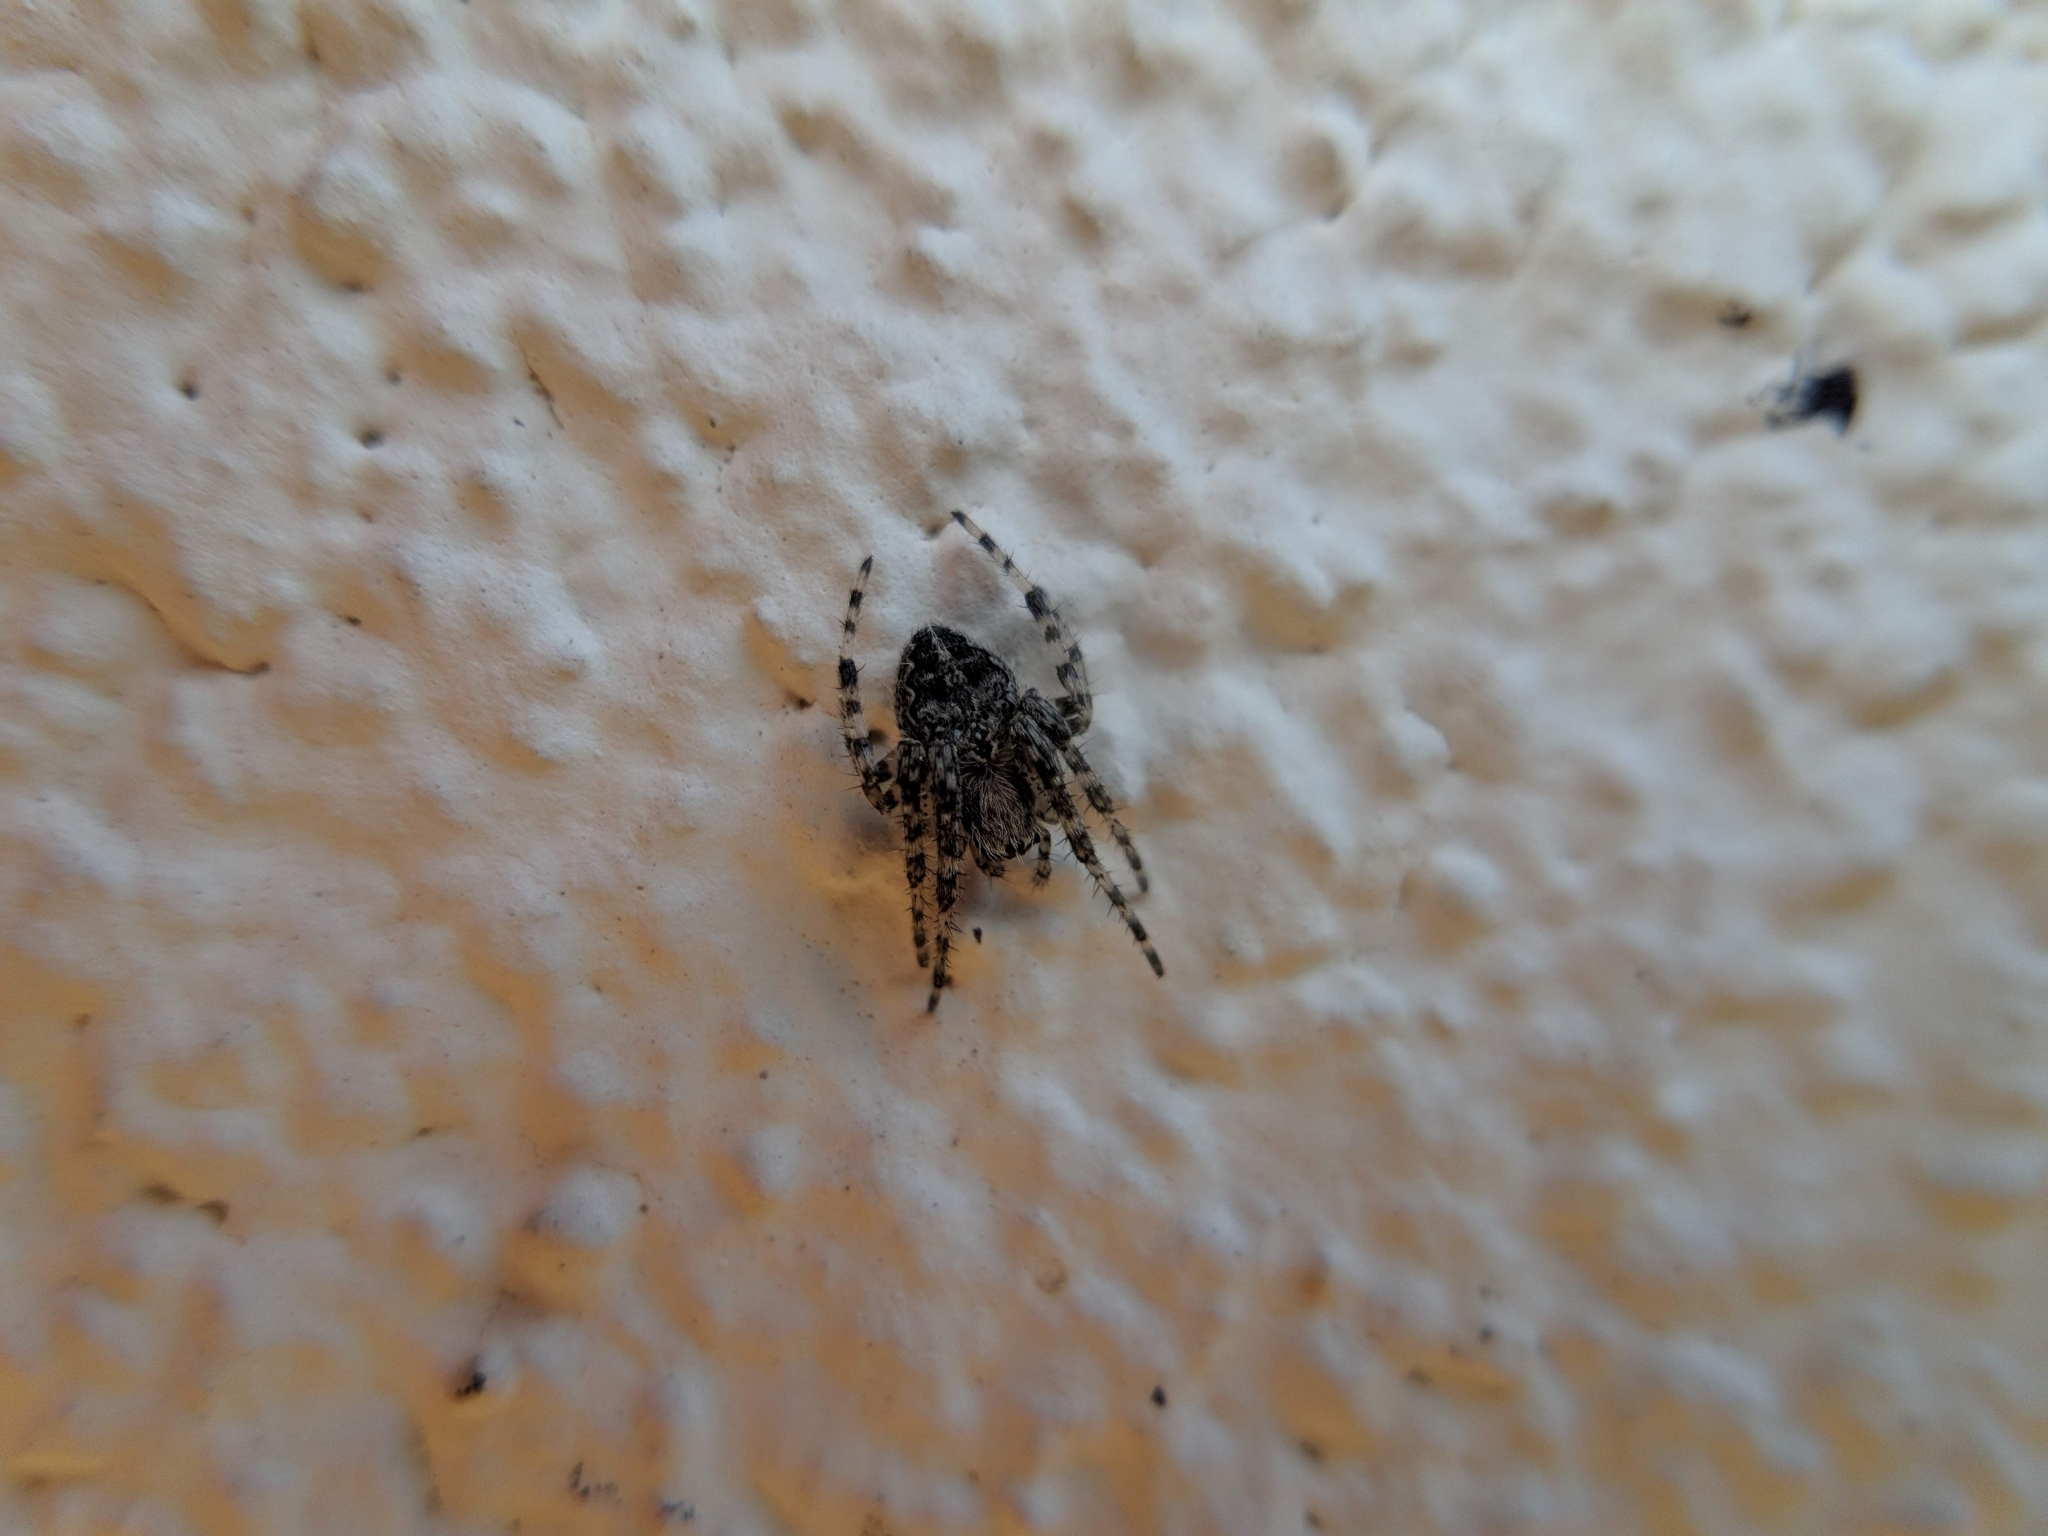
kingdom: Animalia
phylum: Arthropoda
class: Arachnida
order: Araneae
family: Araneidae
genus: Larinioides
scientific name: Larinioides sclopetarius
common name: Bridge orbweaver
